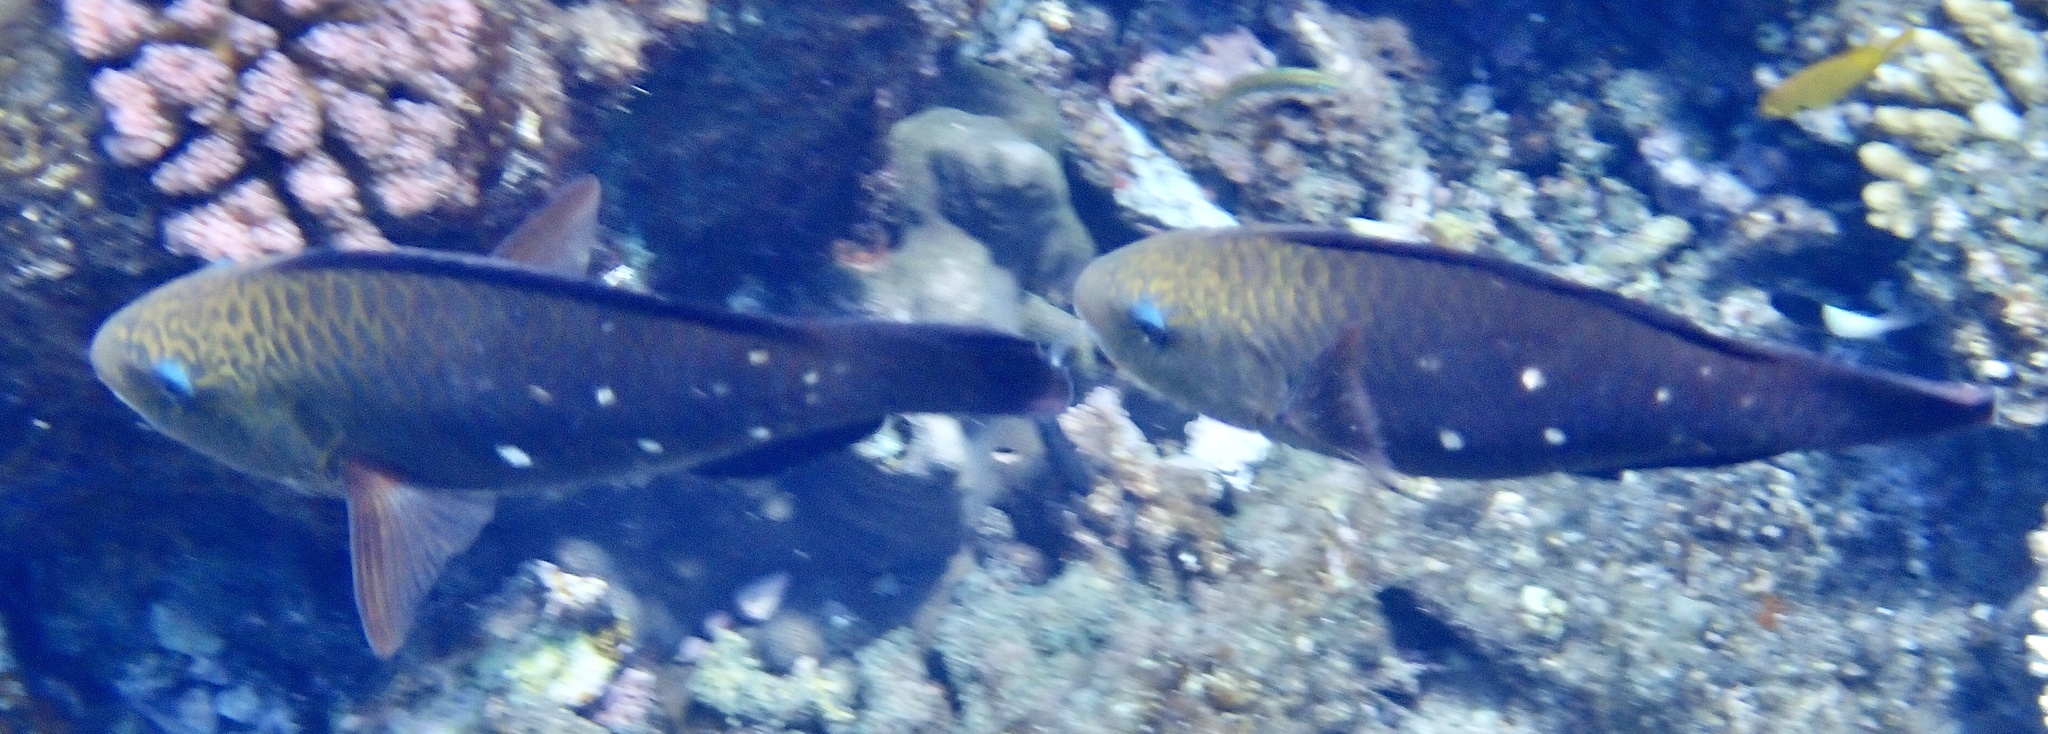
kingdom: Animalia
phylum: Chordata
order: Perciformes
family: Scaridae
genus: Chlorurus
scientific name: Chlorurus sordidus
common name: Bullethead parrotfish
